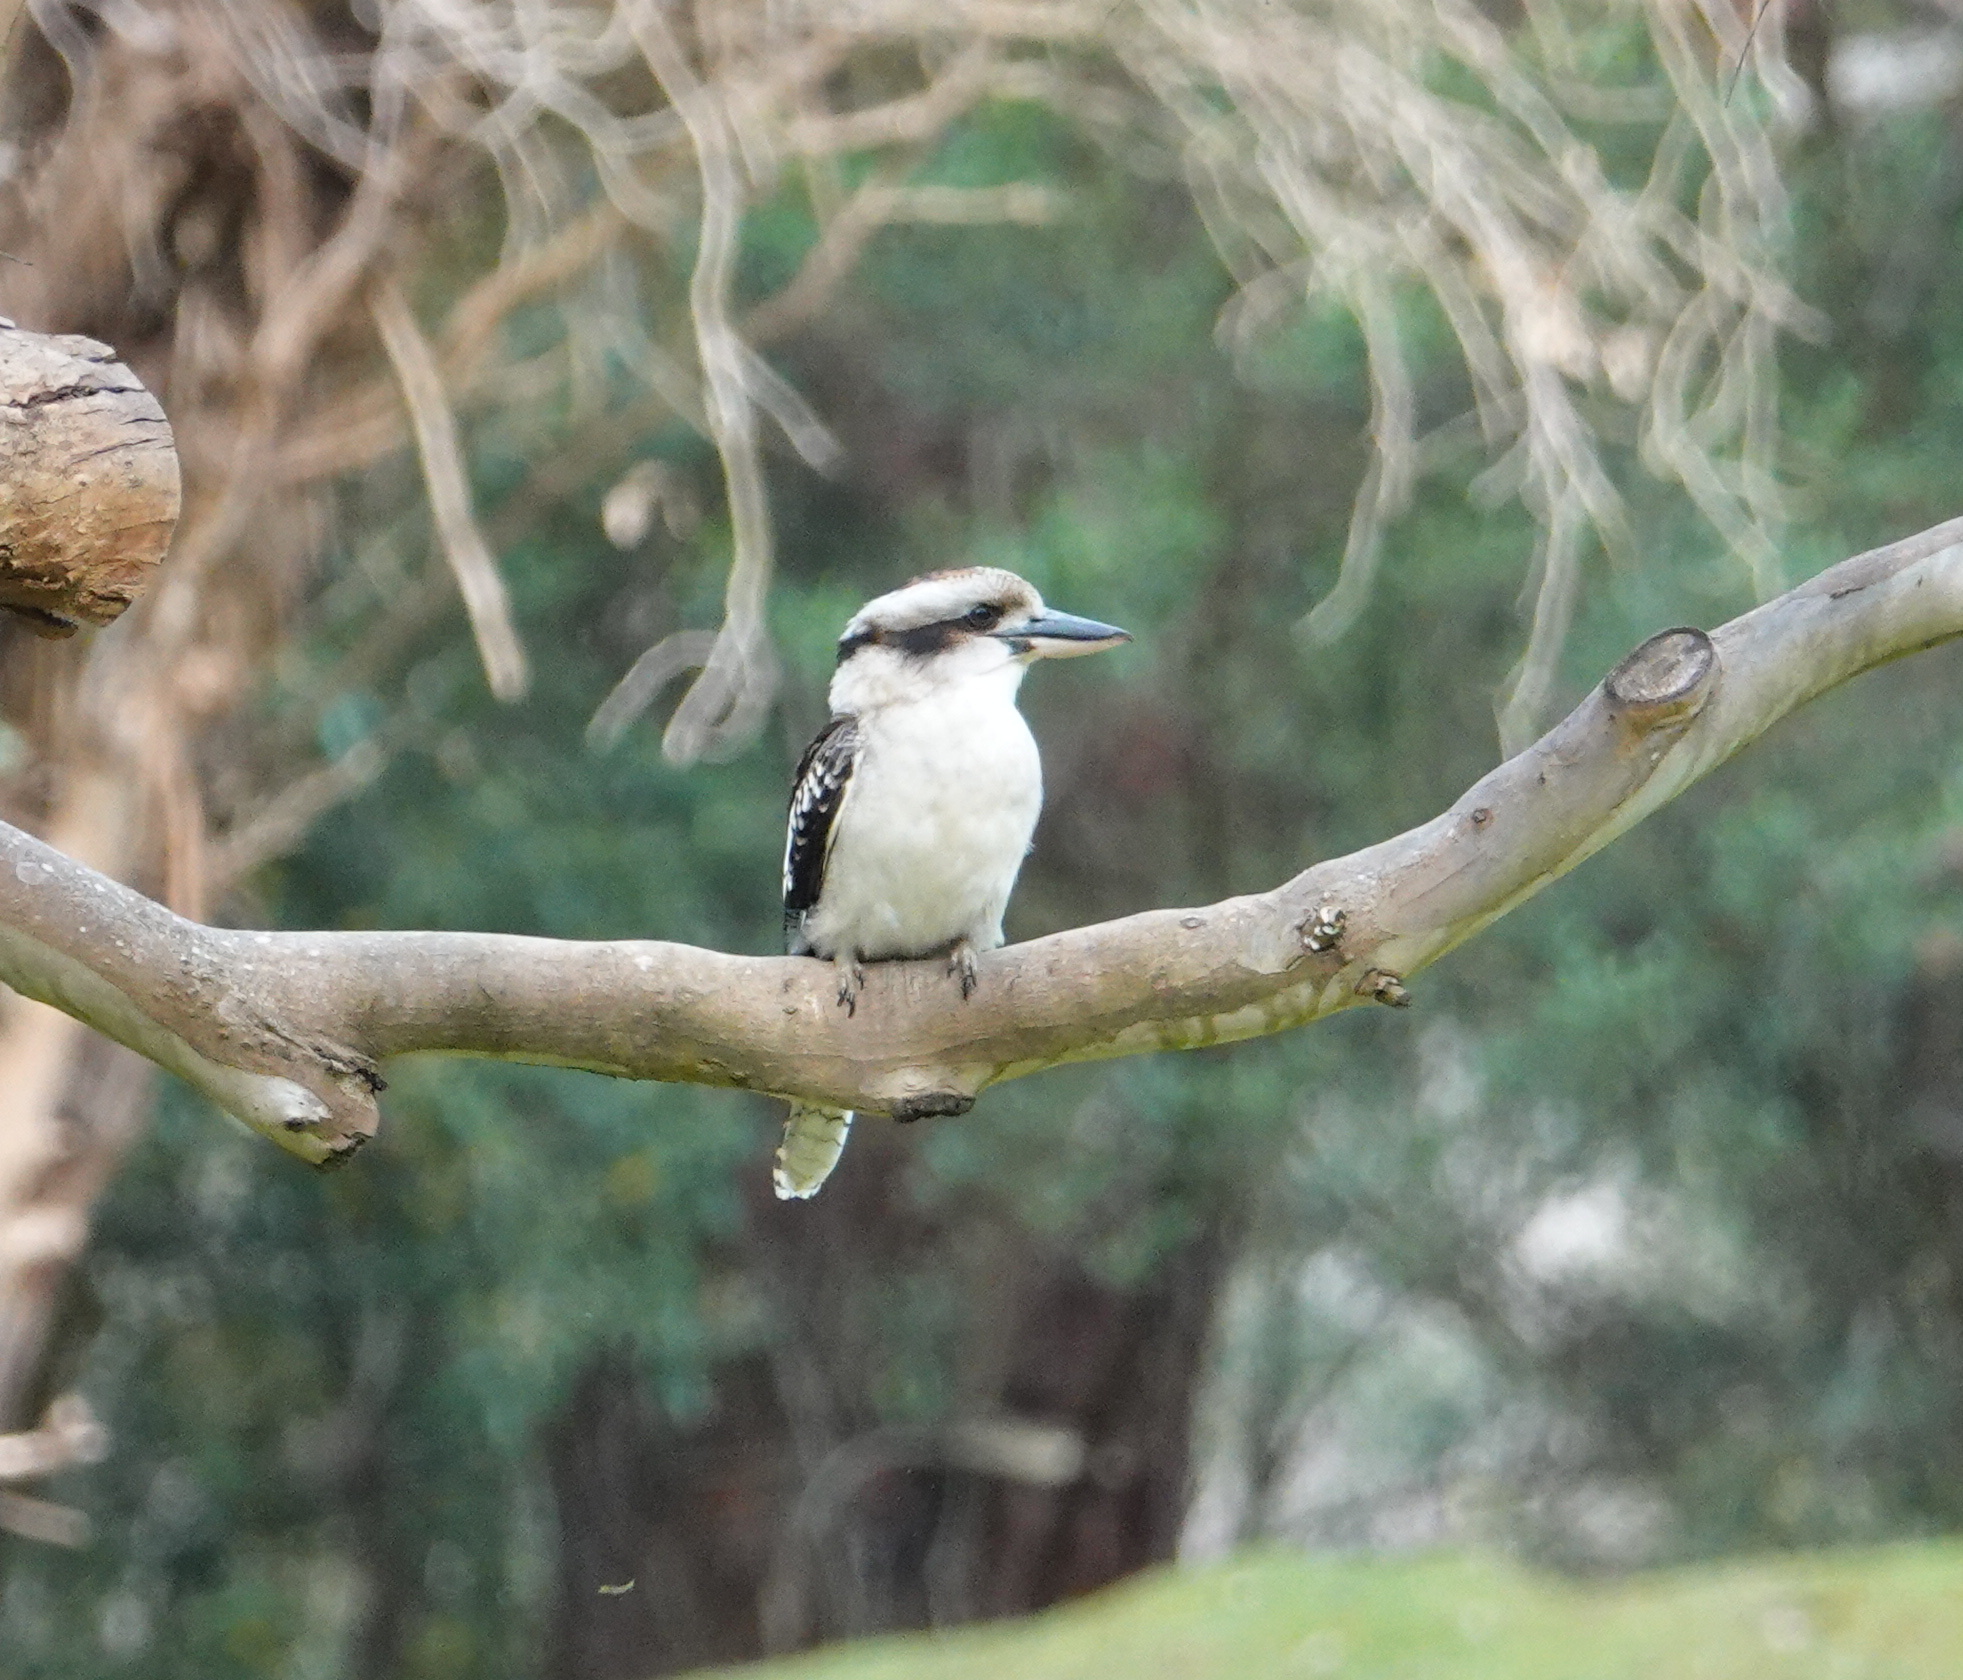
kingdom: Animalia
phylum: Chordata
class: Aves
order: Coraciiformes
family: Alcedinidae
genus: Dacelo
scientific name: Dacelo novaeguineae
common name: Laughing kookaburra
